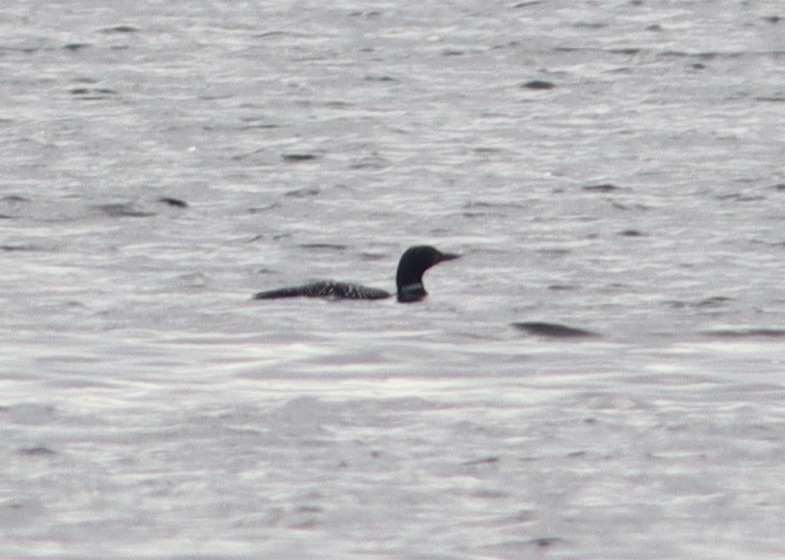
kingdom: Animalia
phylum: Chordata
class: Aves
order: Gaviiformes
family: Gaviidae
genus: Gavia
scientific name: Gavia immer
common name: Common loon
